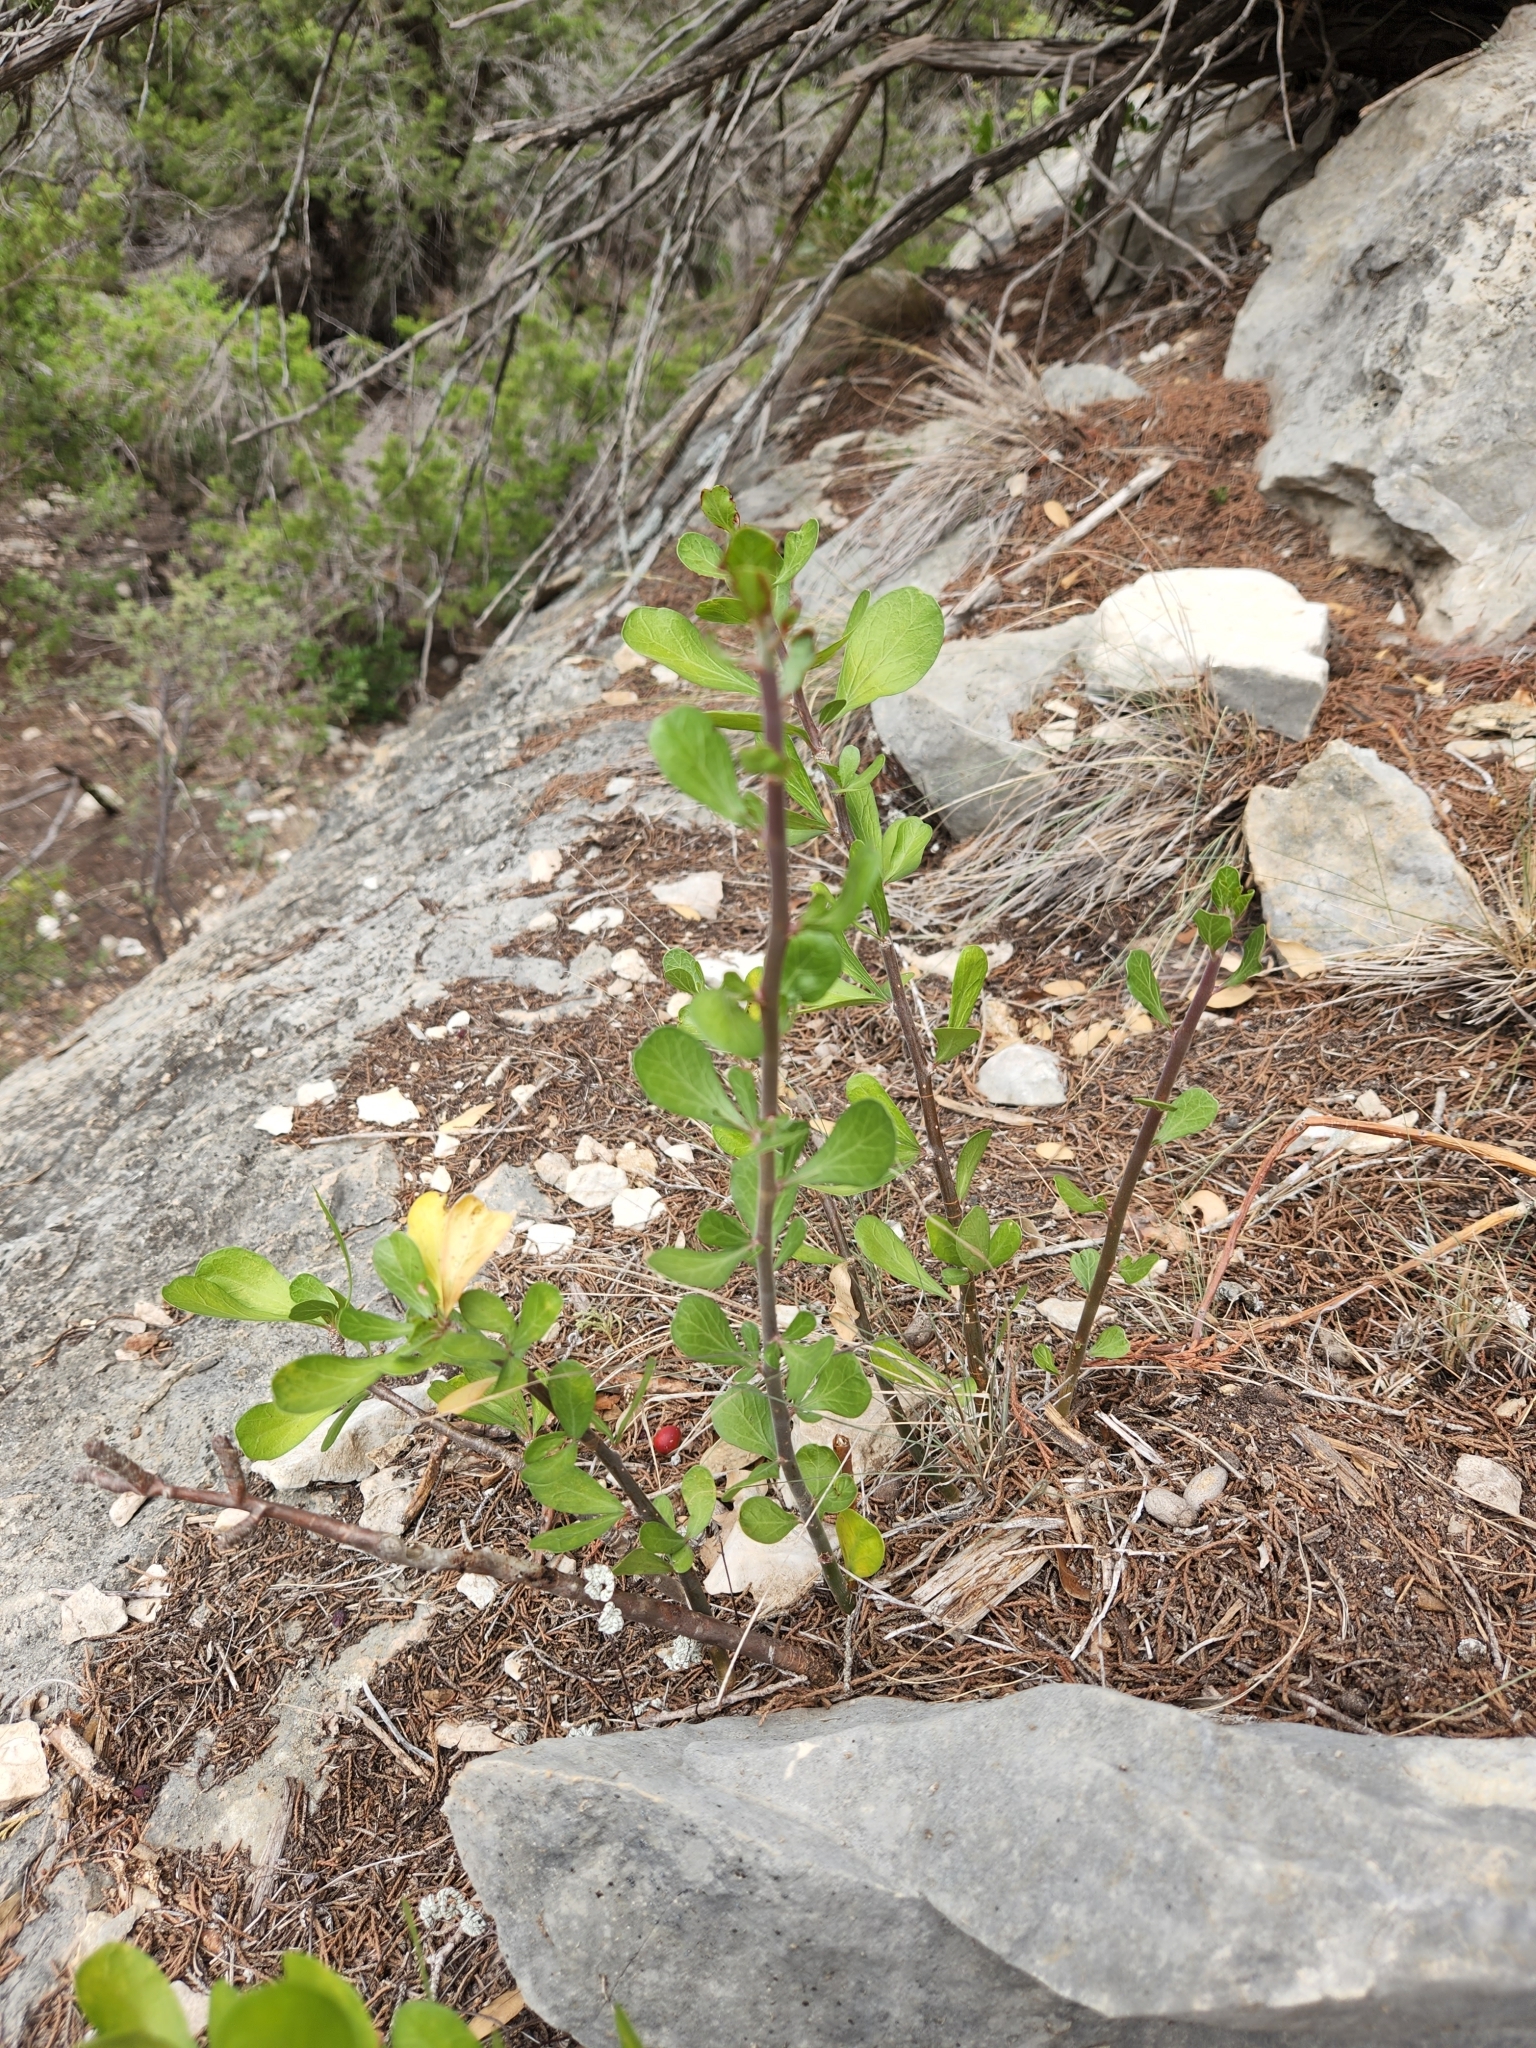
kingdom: Plantae
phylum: Tracheophyta
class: Magnoliopsida
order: Malpighiales
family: Euphorbiaceae
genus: Jatropha
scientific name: Jatropha dioica
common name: Leatherstem
